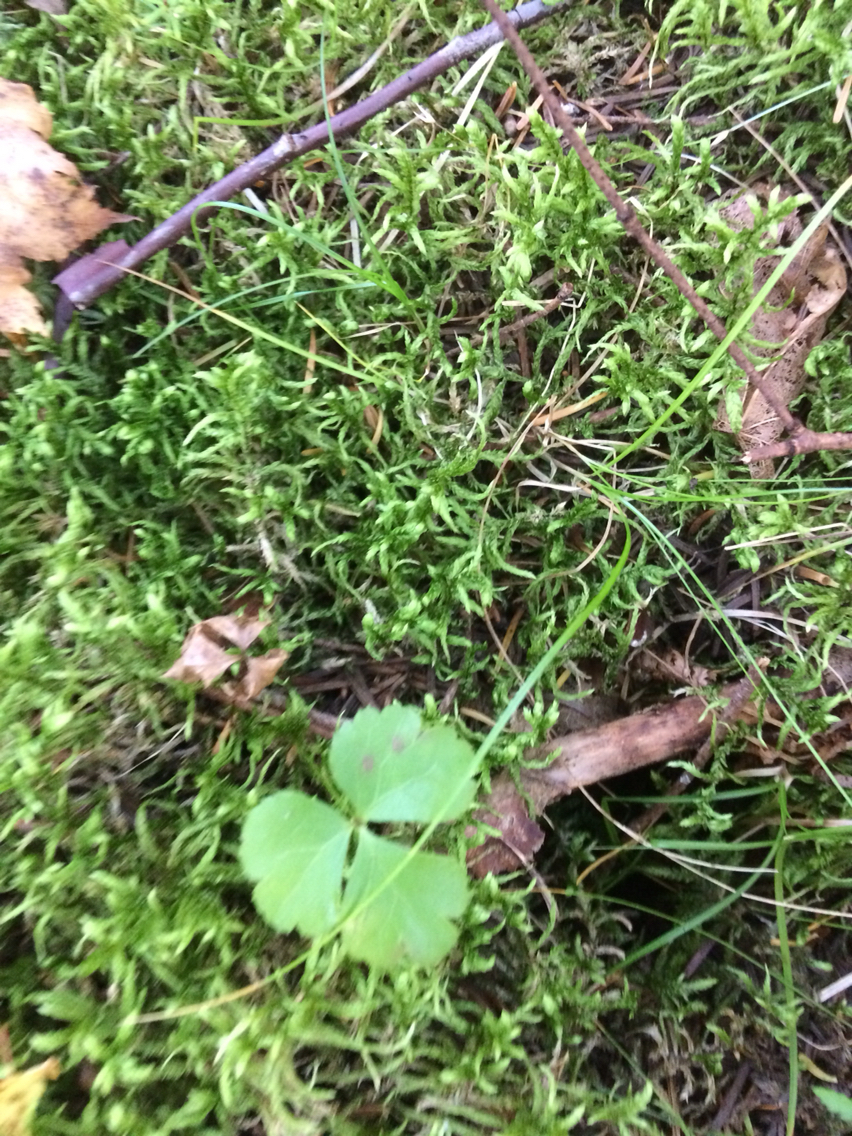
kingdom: Plantae
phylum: Tracheophyta
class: Magnoliopsida
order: Ranunculales
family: Ranunculaceae
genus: Coptis
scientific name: Coptis trifolia
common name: Canker-root
